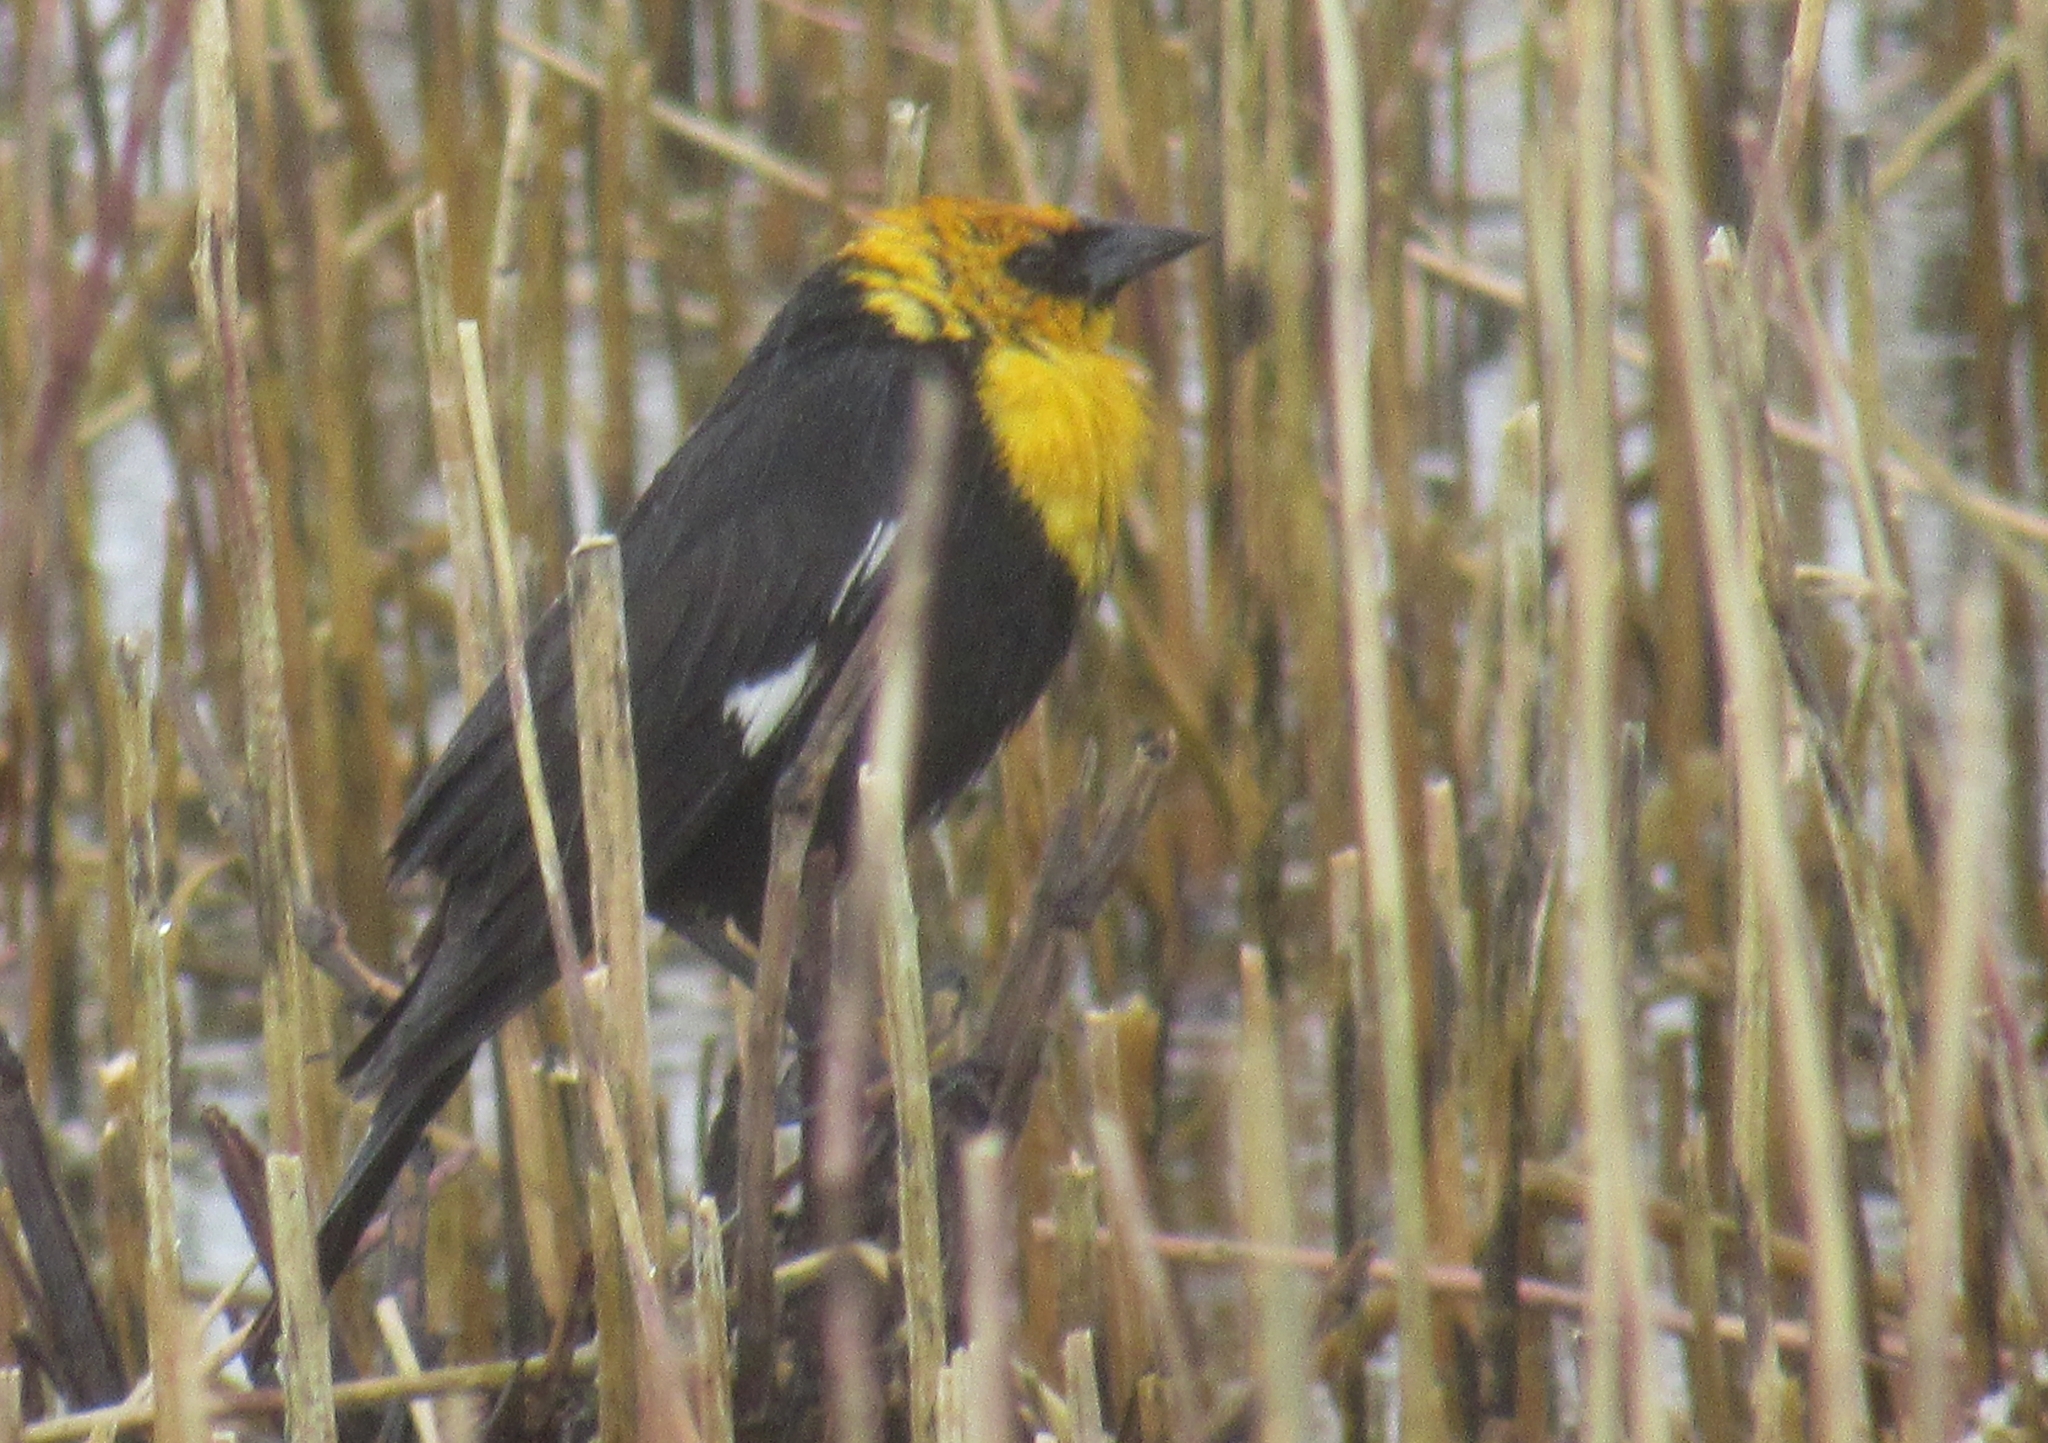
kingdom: Animalia
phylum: Chordata
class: Aves
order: Passeriformes
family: Icteridae
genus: Xanthocephalus
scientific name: Xanthocephalus xanthocephalus
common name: Yellow-headed blackbird
